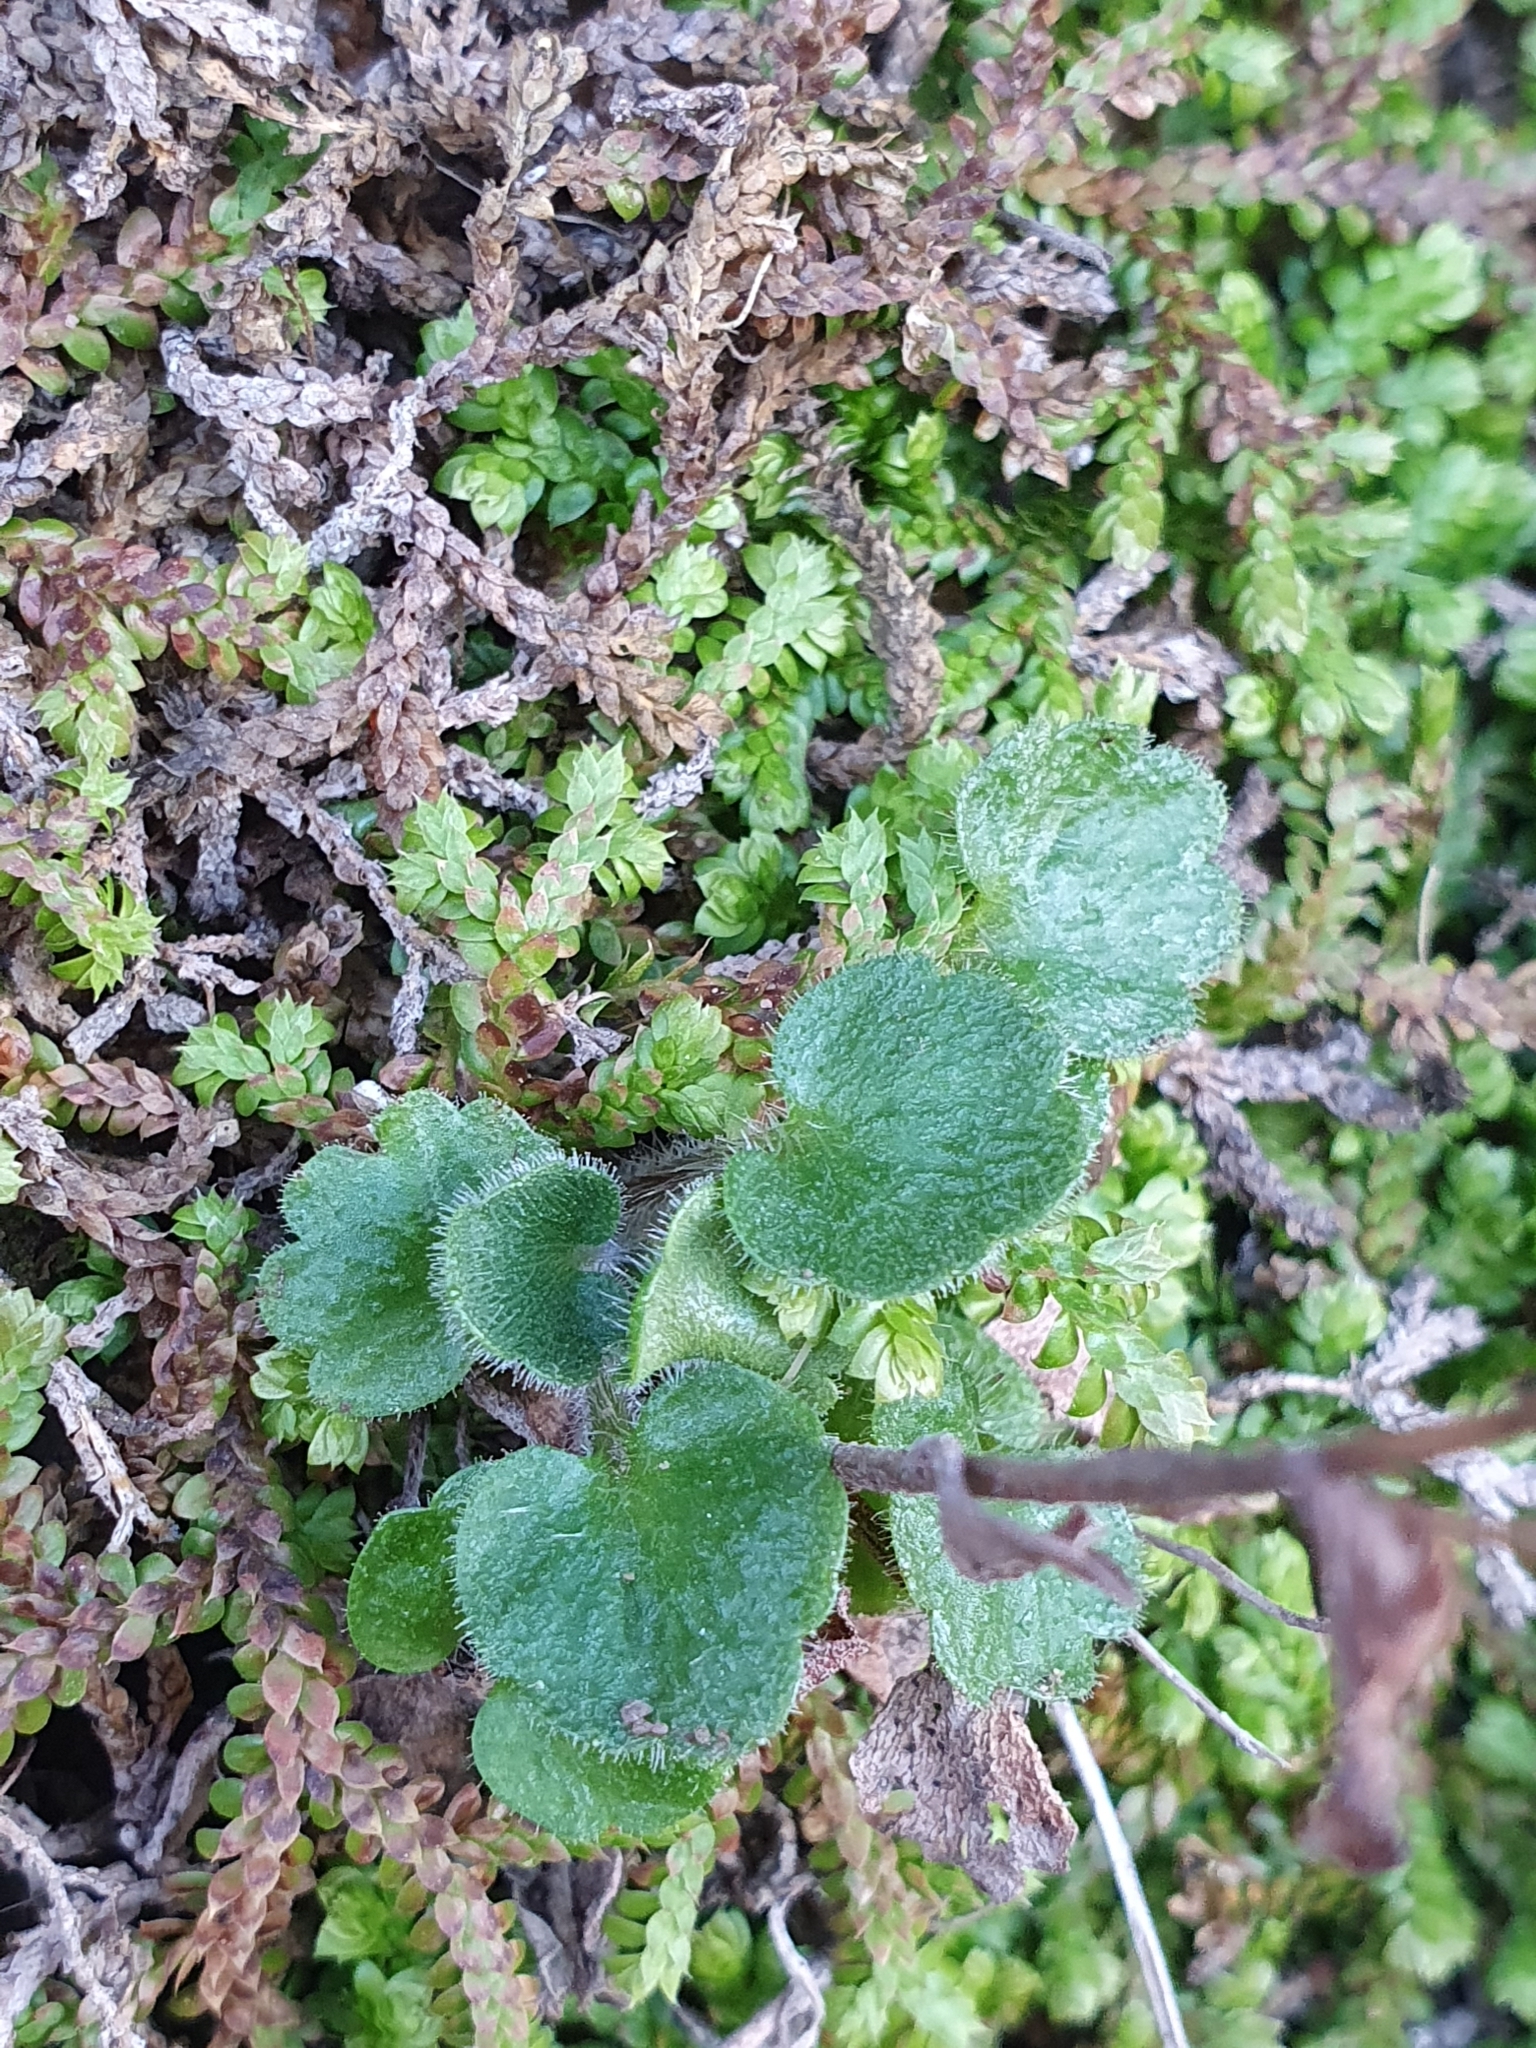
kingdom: Plantae
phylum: Tracheophyta
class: Magnoliopsida
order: Saxifragales
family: Saxifragaceae
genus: Saxifraga
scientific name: Saxifraga carpetana
